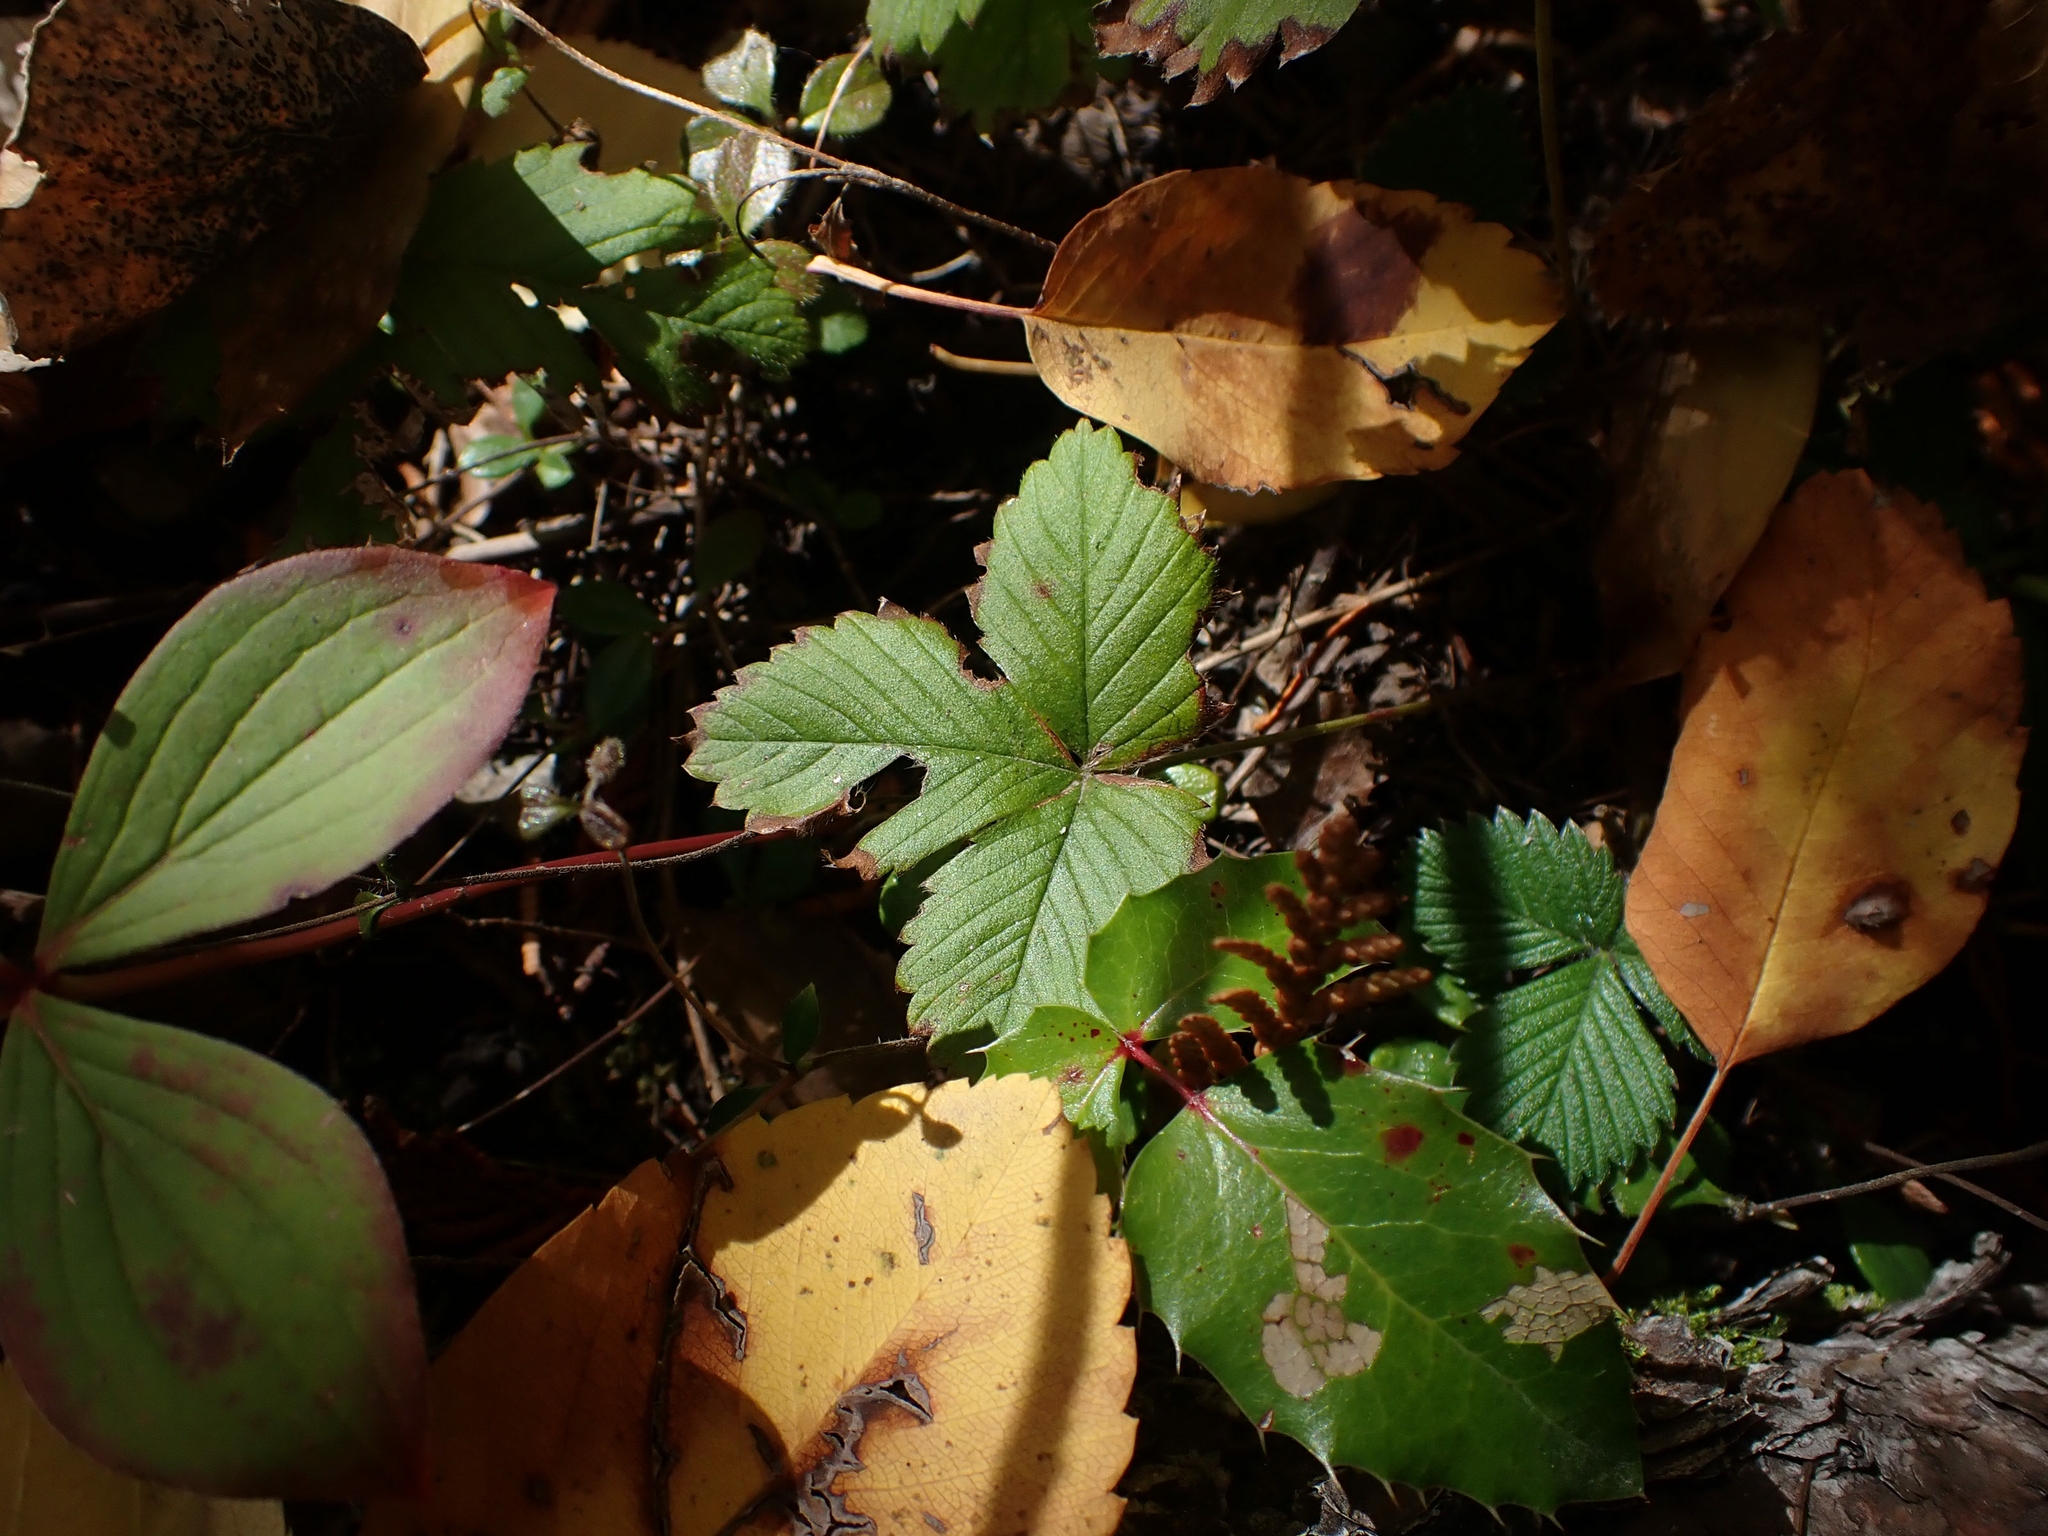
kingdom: Plantae
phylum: Tracheophyta
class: Magnoliopsida
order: Rosales
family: Rosaceae
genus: Fragaria
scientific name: Fragaria vesca
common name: Wild strawberry
